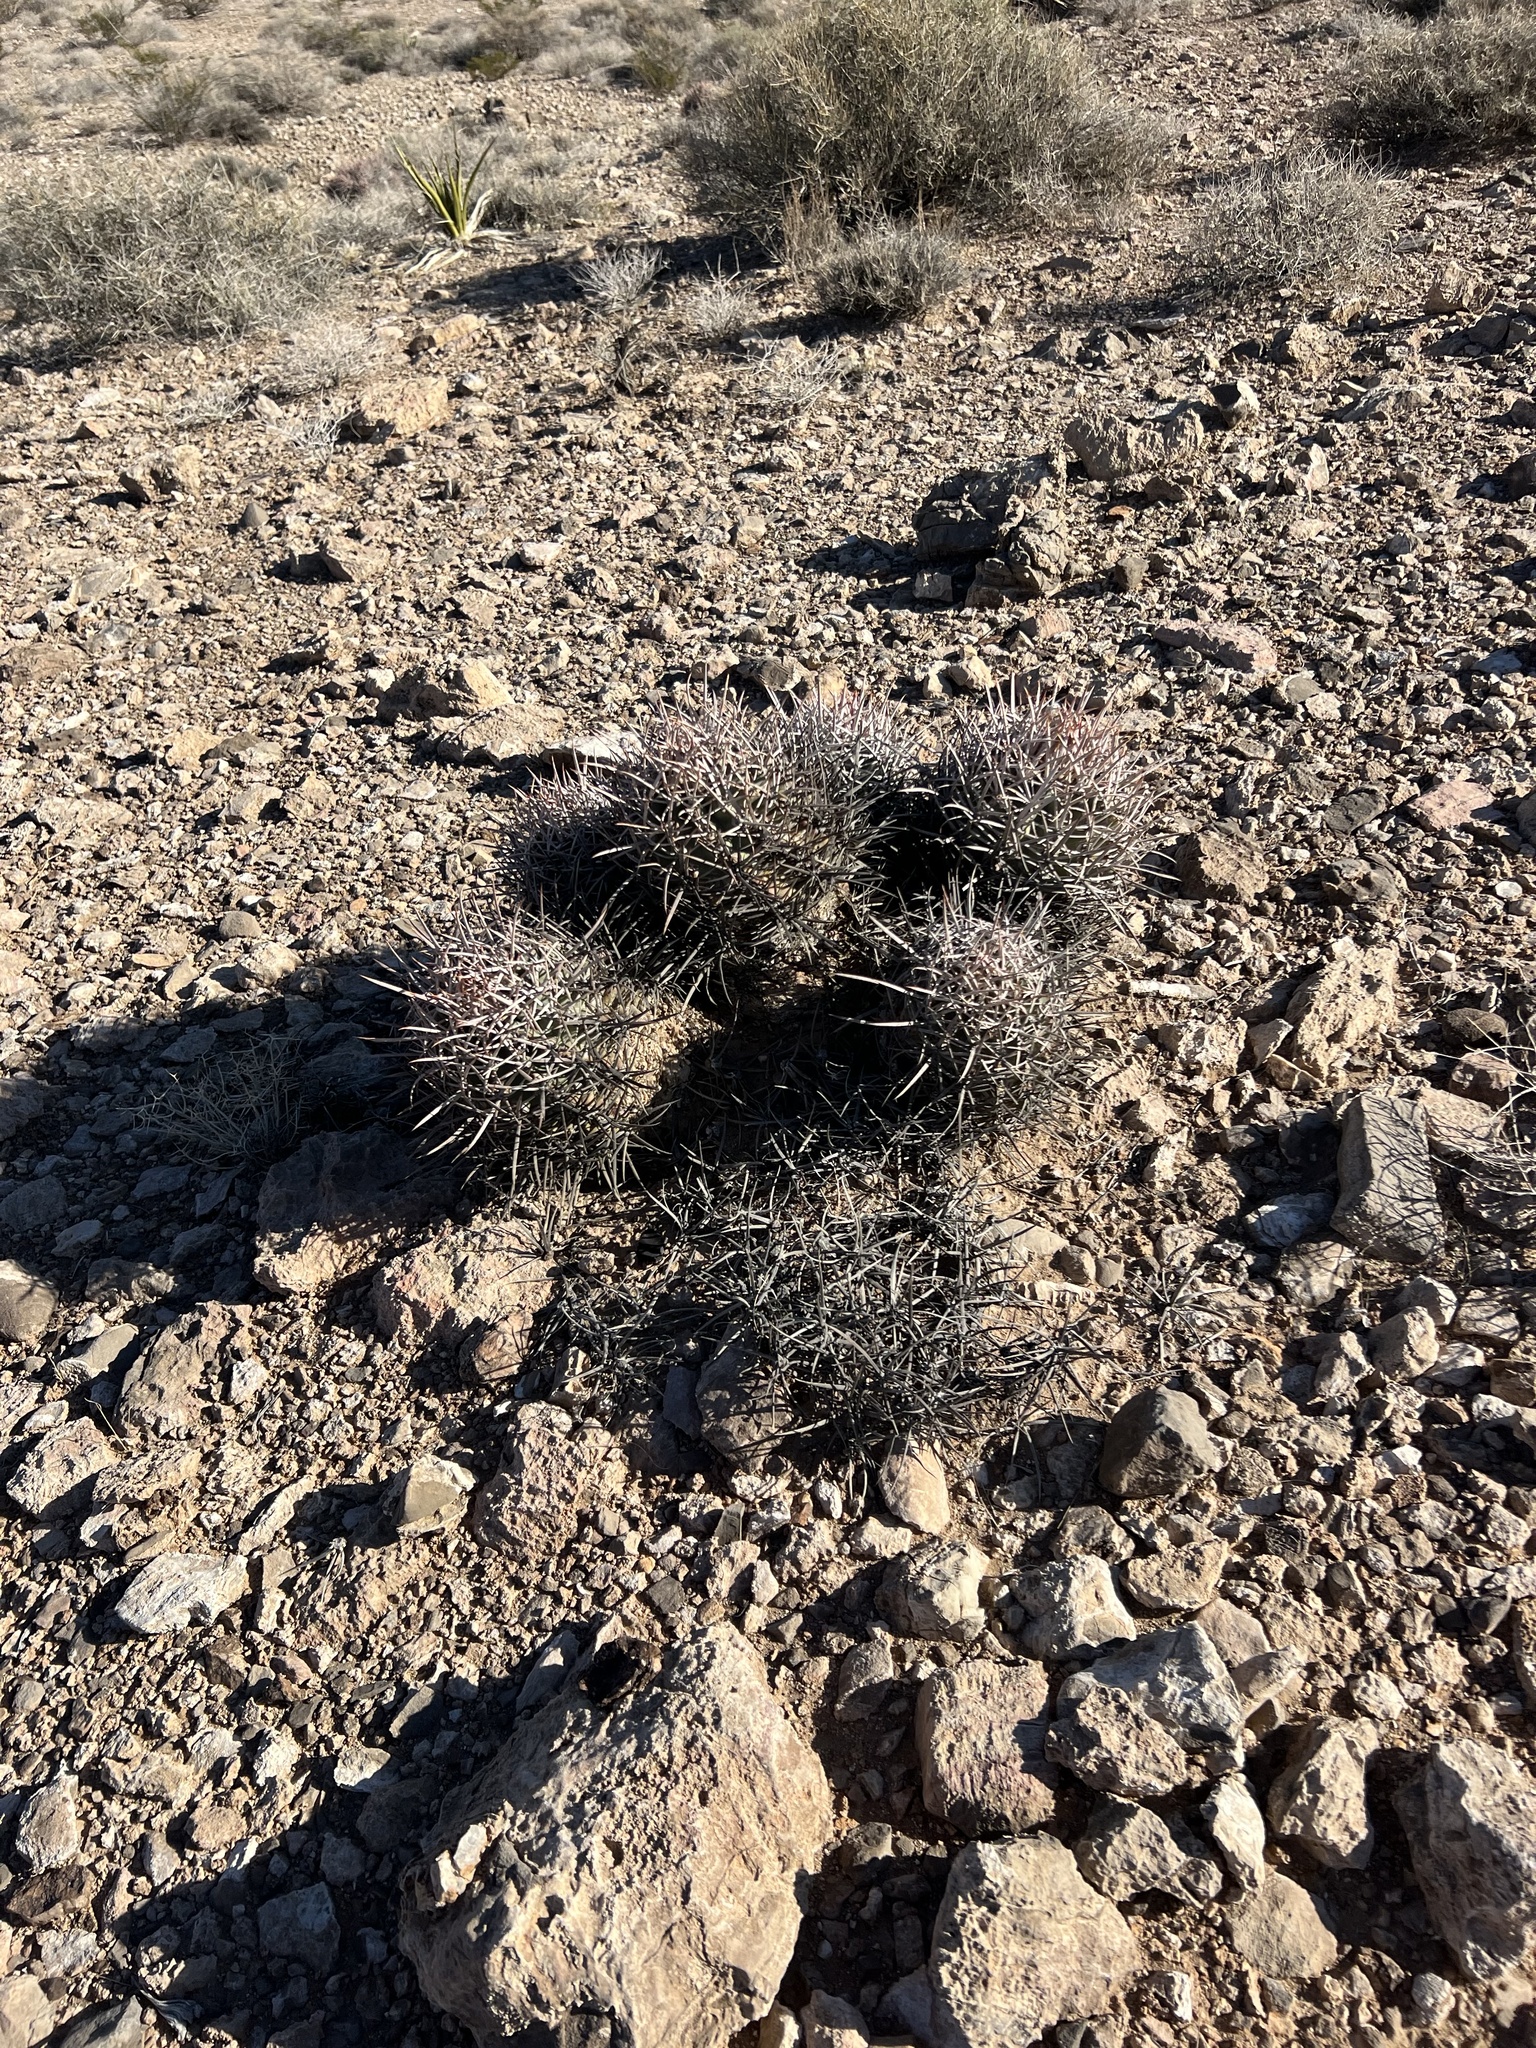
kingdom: Plantae
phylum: Tracheophyta
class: Magnoliopsida
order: Caryophyllales
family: Cactaceae
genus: Echinocactus
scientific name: Echinocactus polycephalus
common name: Cottontop cactus
